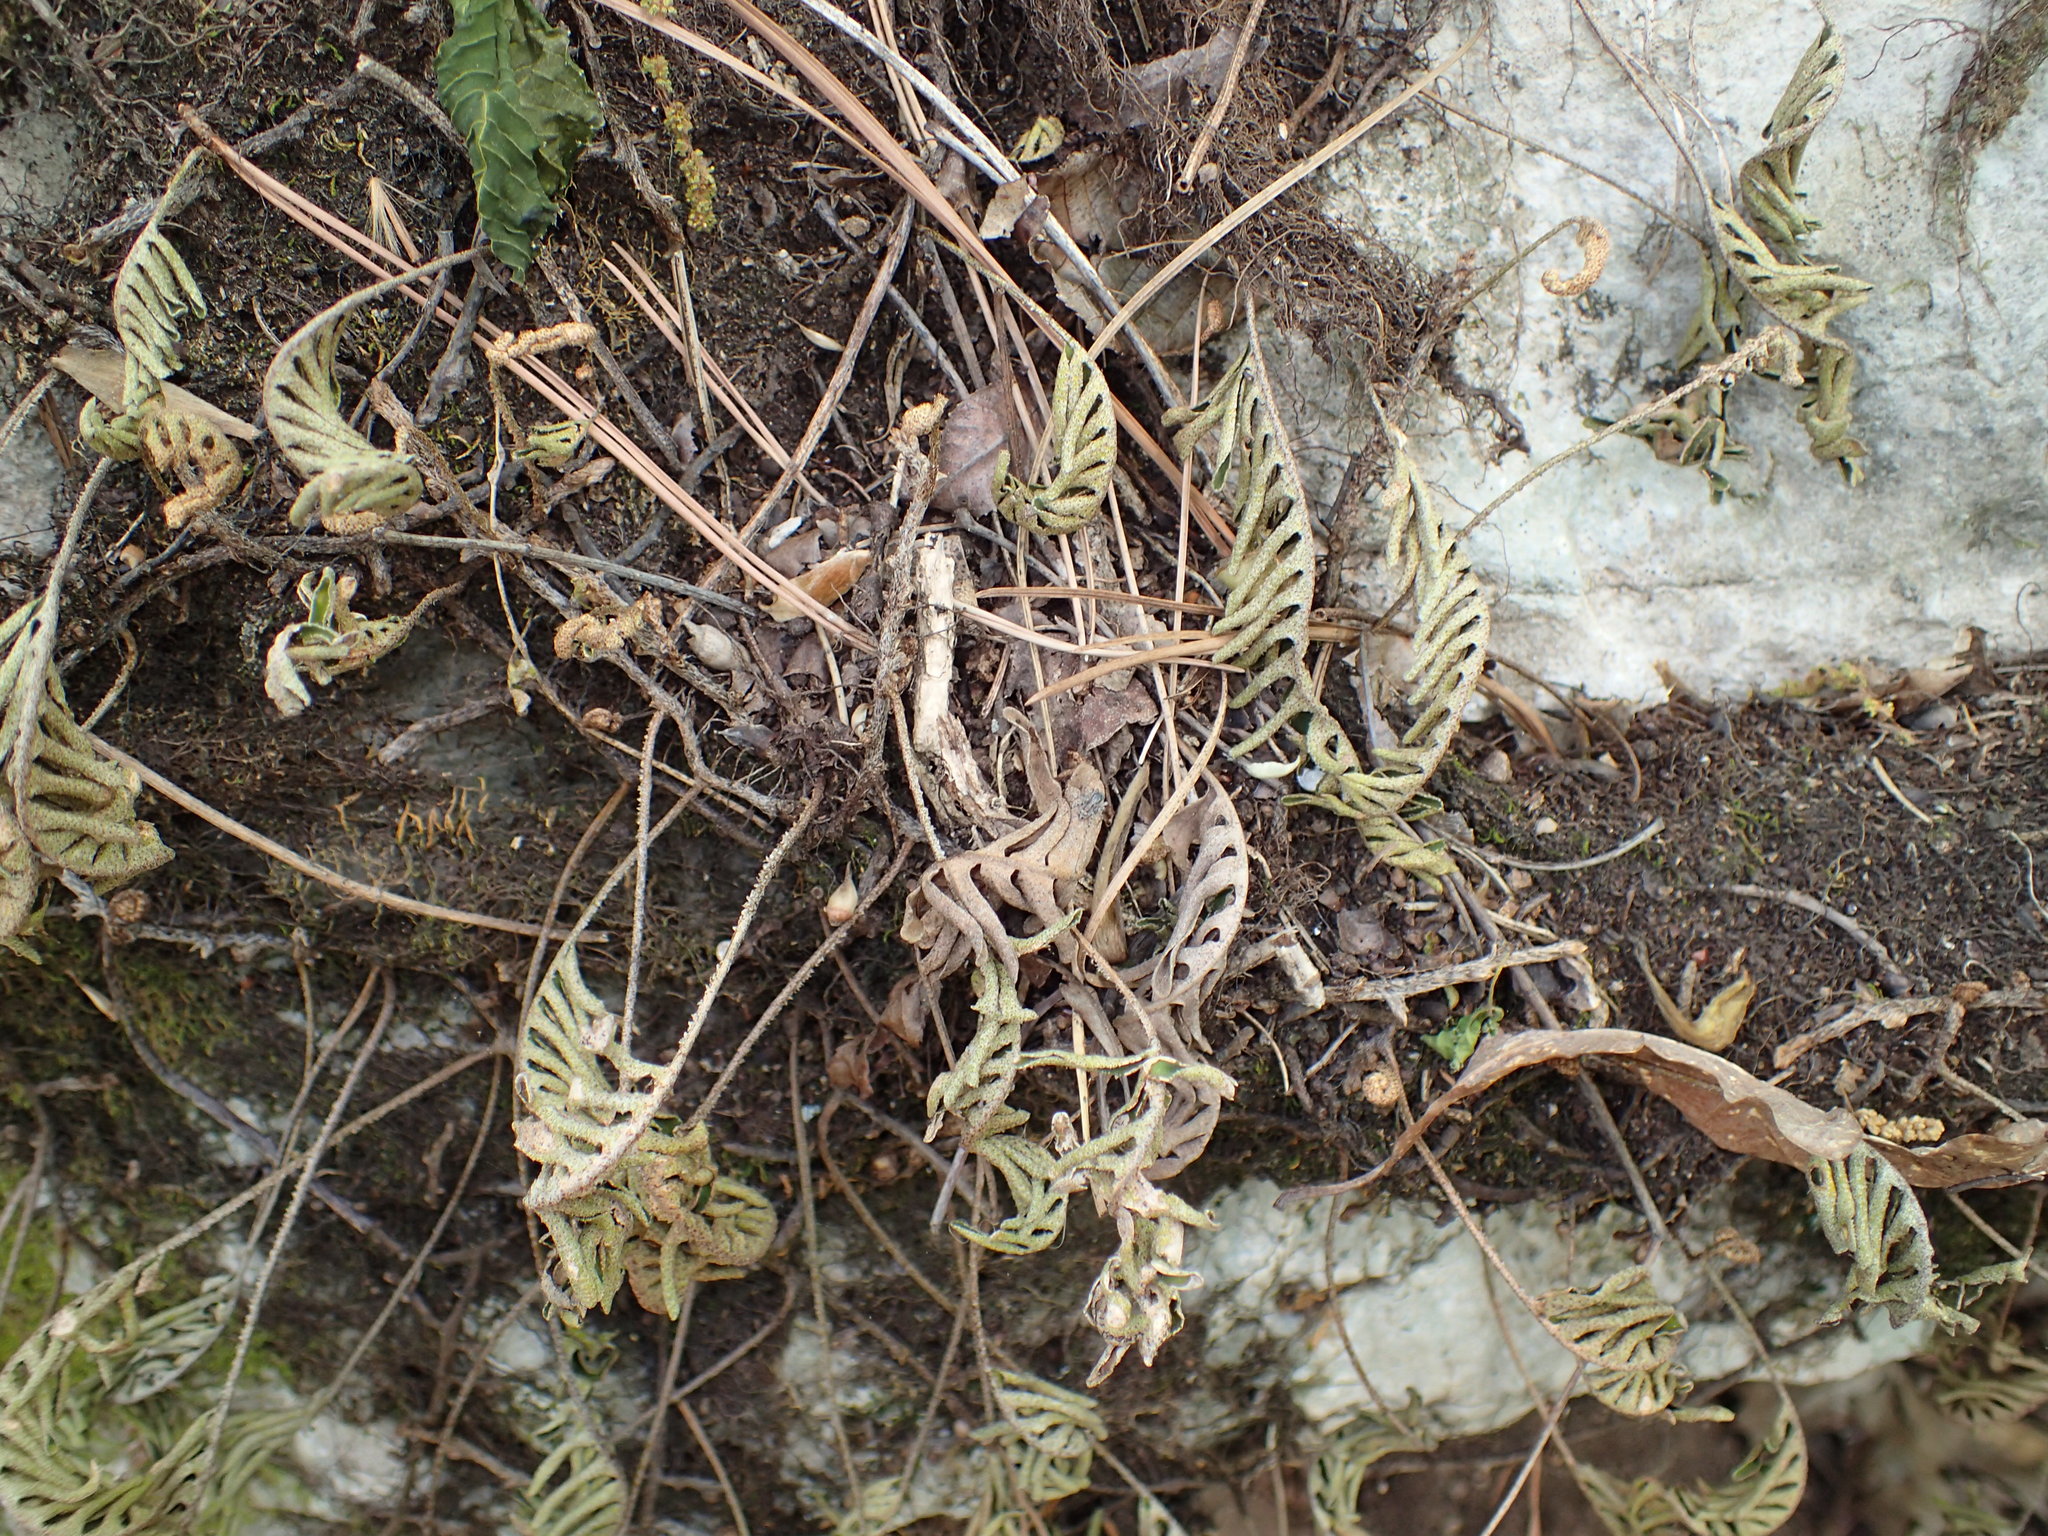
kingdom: Plantae
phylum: Tracheophyta
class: Polypodiopsida
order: Polypodiales
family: Polypodiaceae
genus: Pleopeltis
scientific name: Pleopeltis michauxiana
